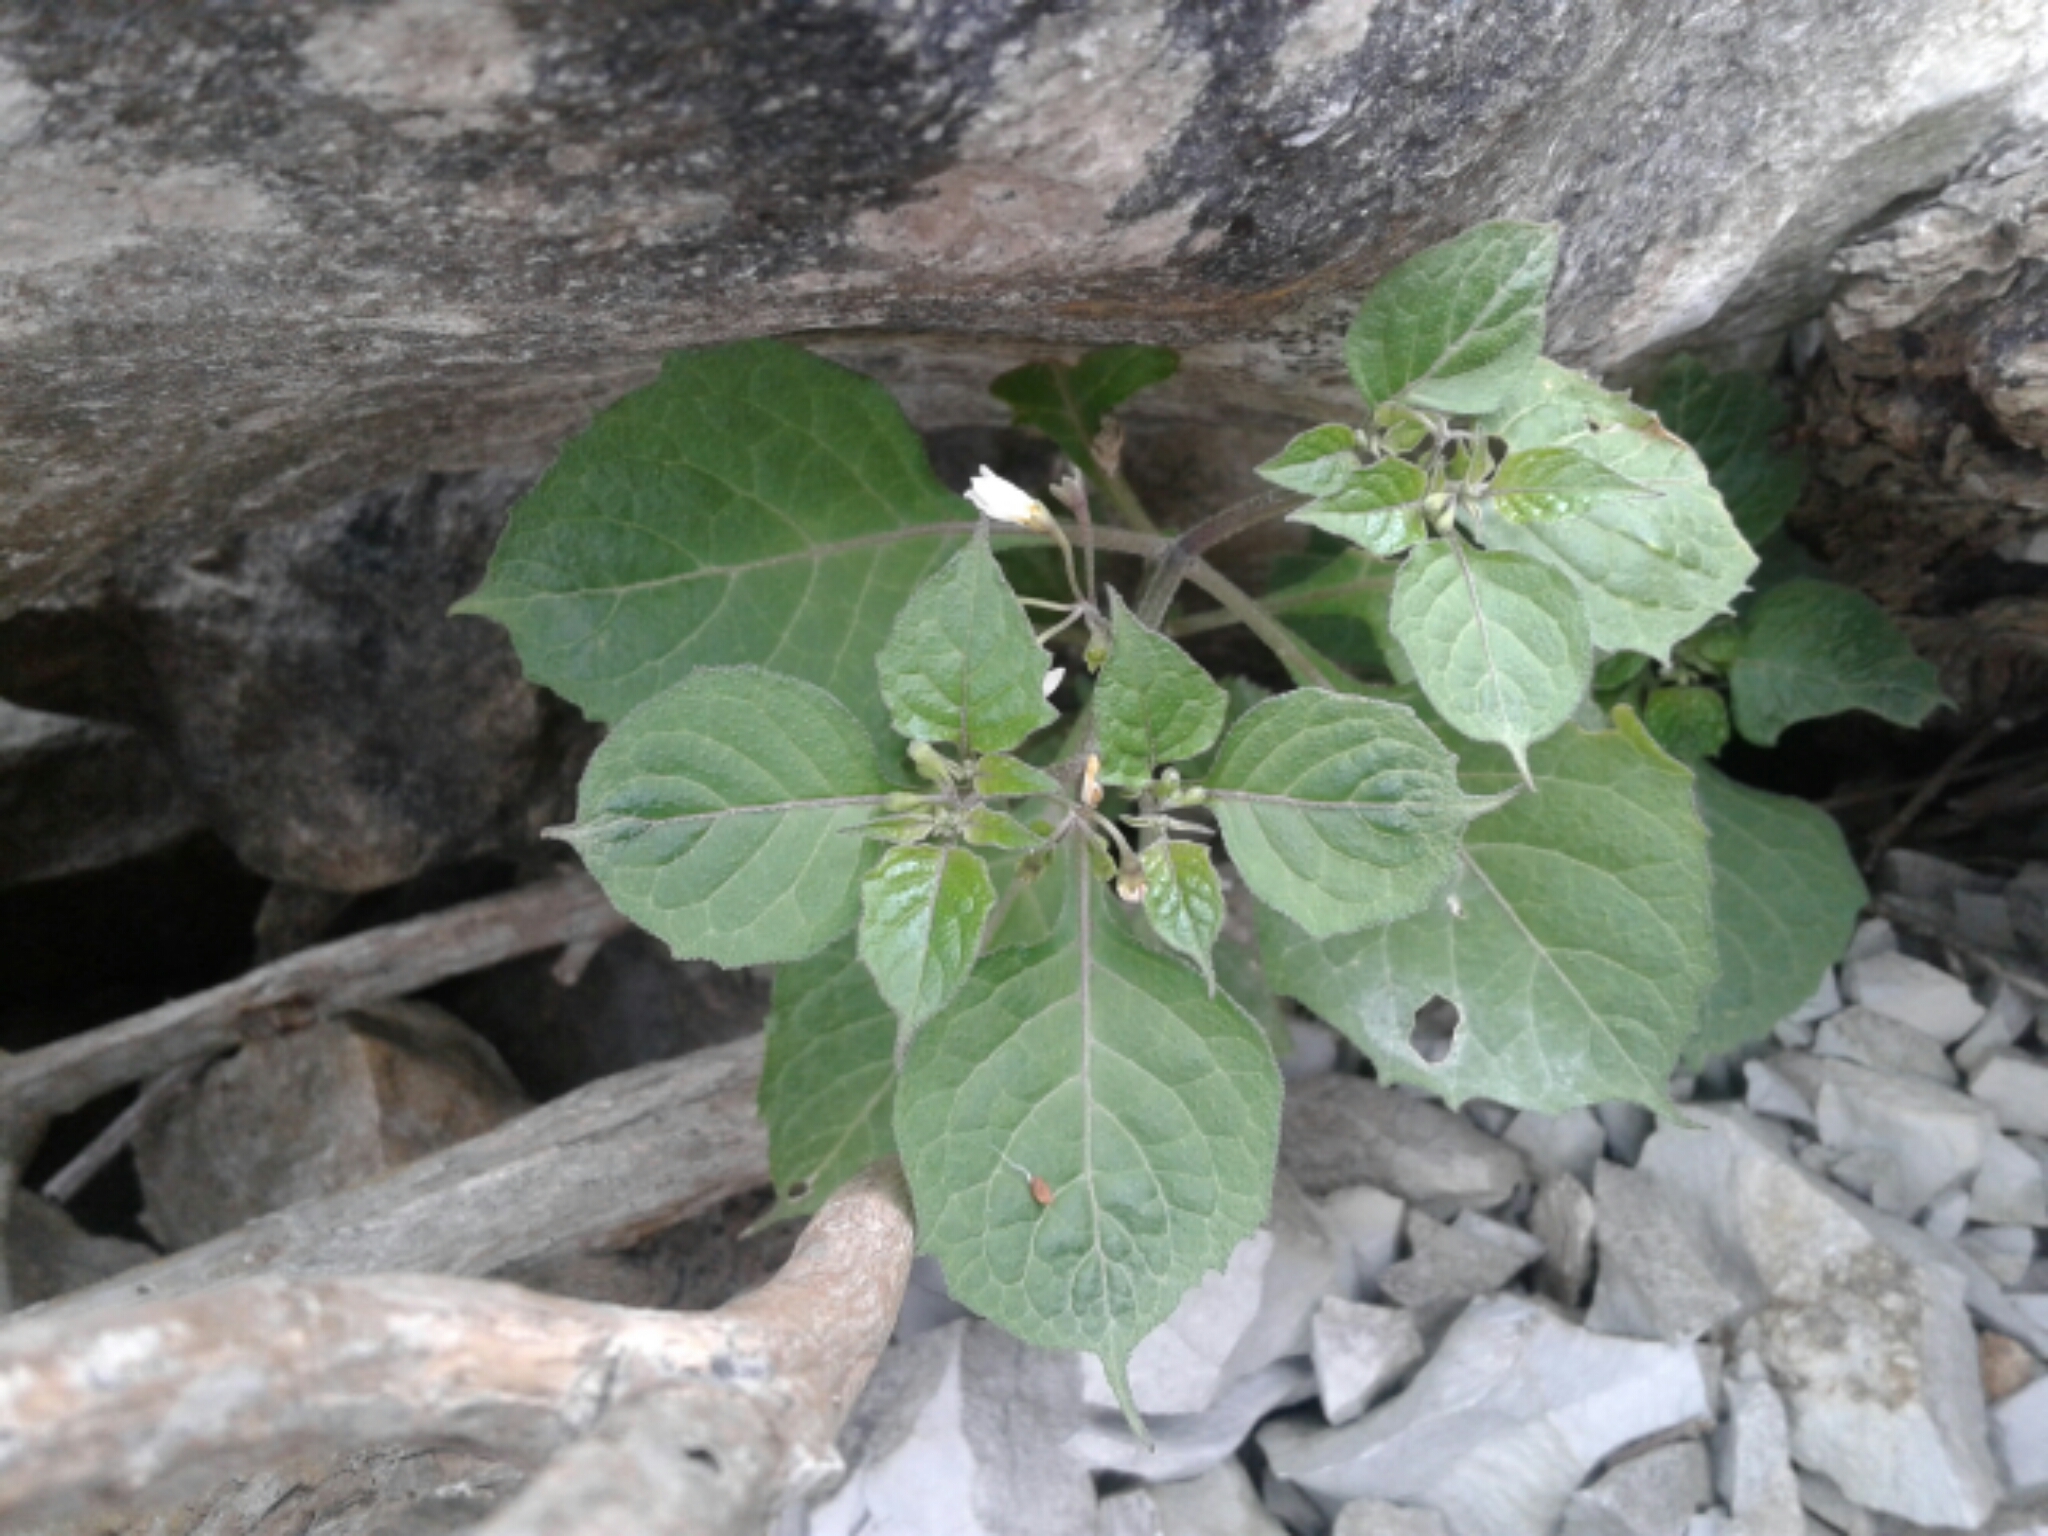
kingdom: Plantae
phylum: Tracheophyta
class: Magnoliopsida
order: Solanales
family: Solanaceae
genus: Solanum
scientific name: Solanum nigrum
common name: Black nightshade
